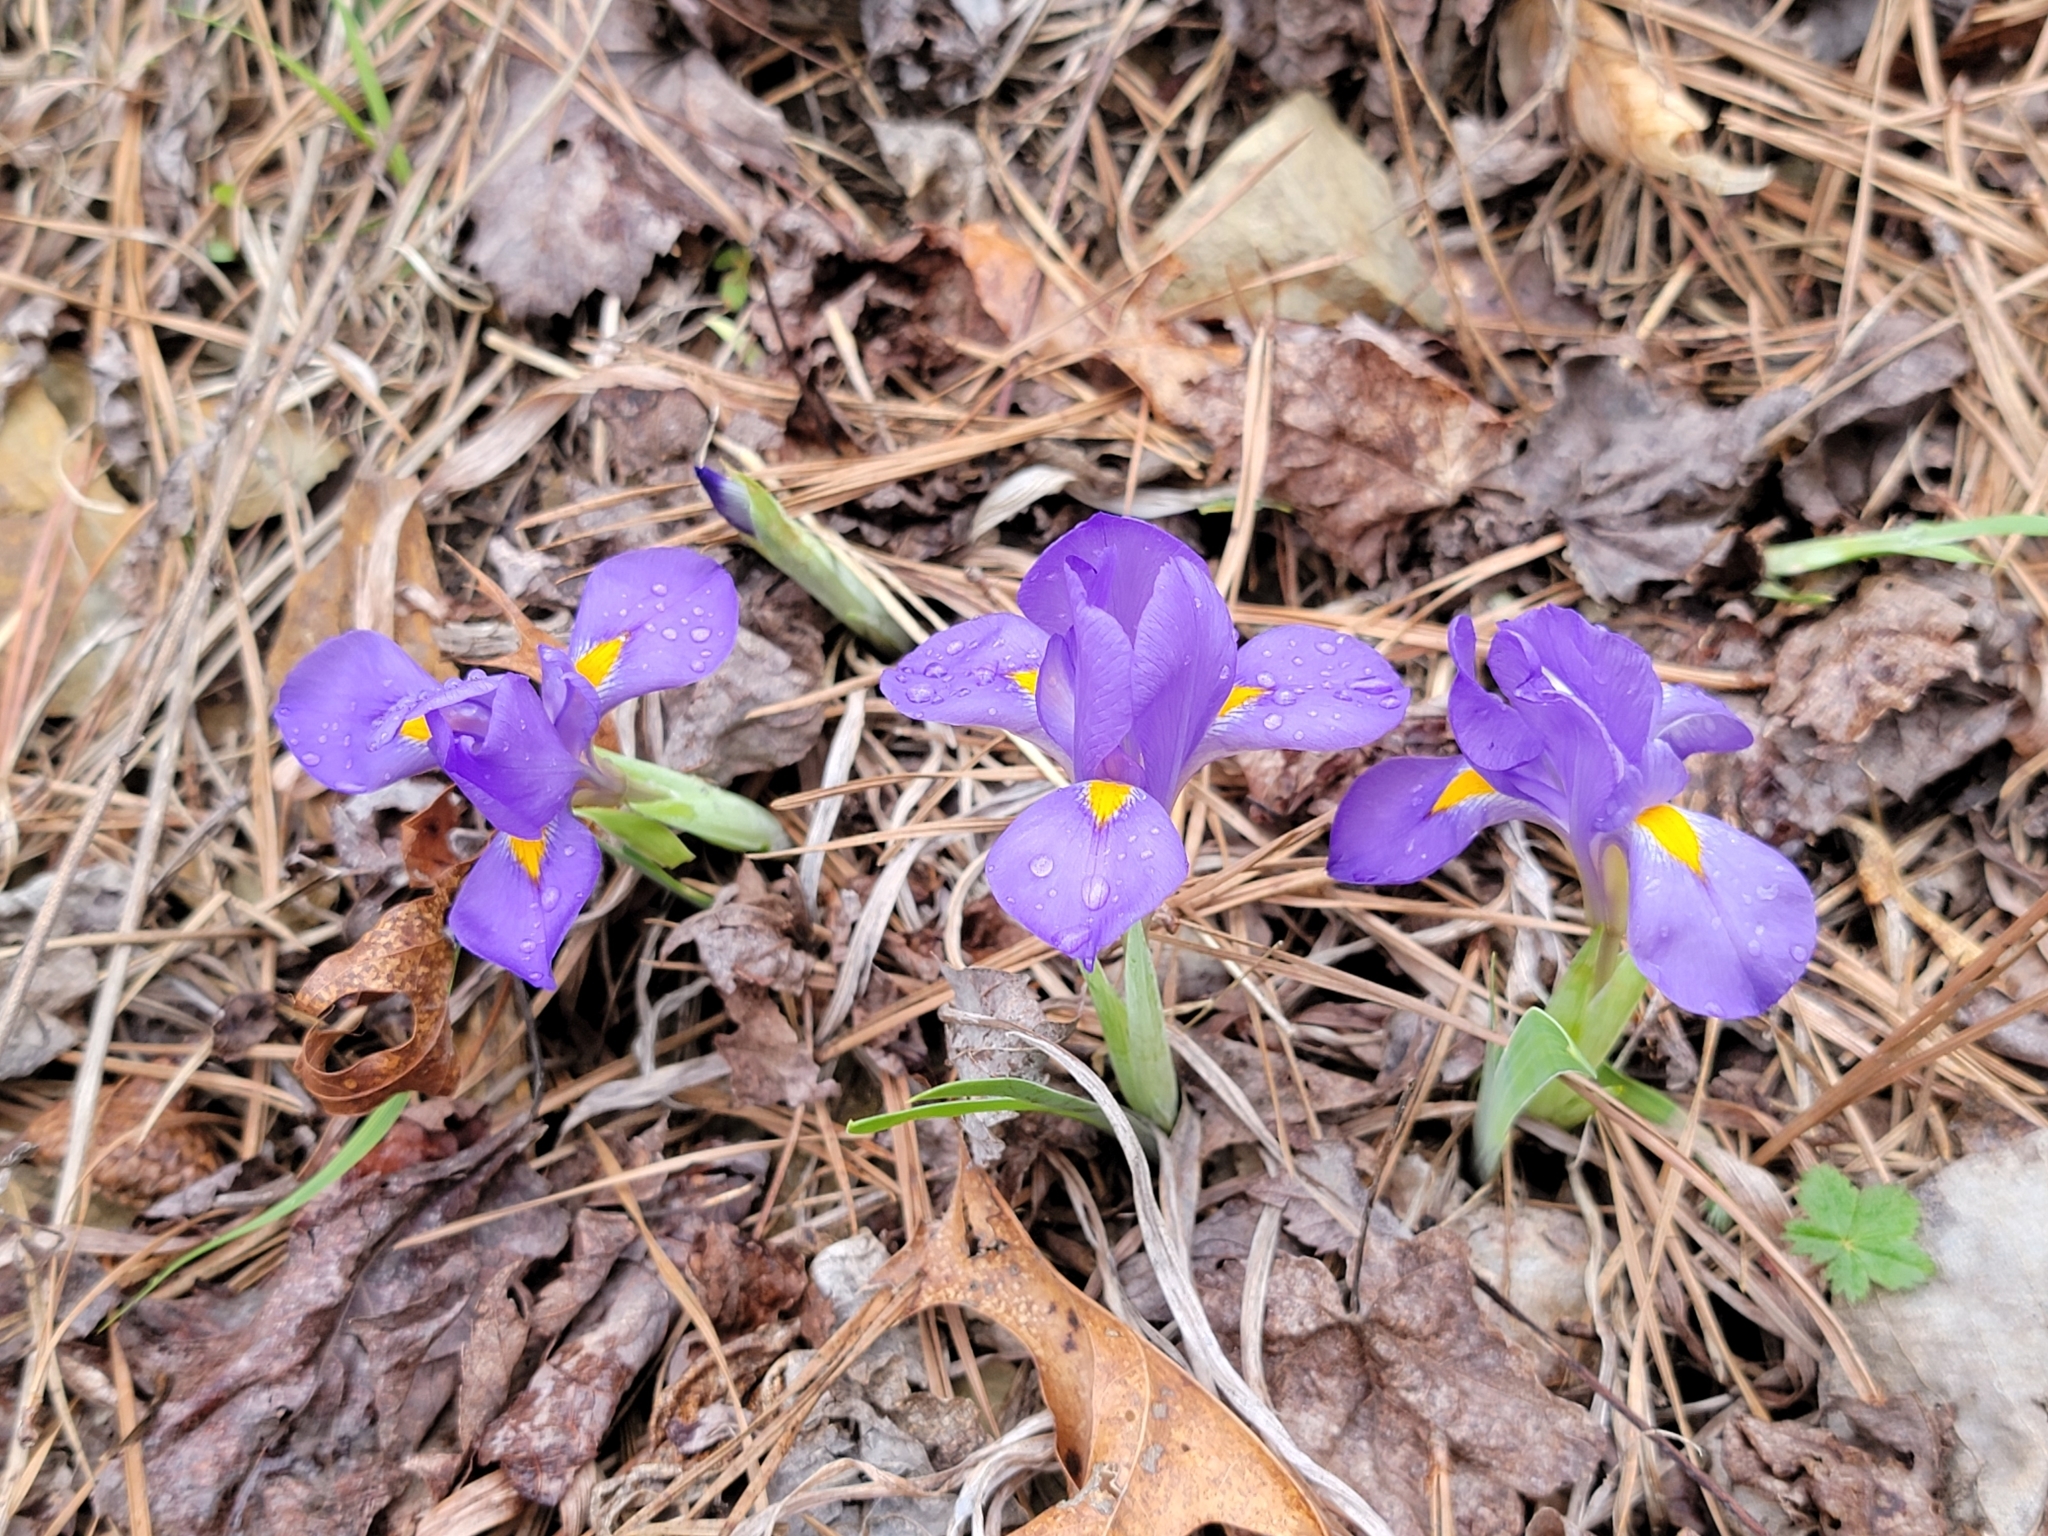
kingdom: Plantae
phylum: Tracheophyta
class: Liliopsida
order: Asparagales
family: Iridaceae
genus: Iris
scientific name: Iris verna
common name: Dwarf iris
